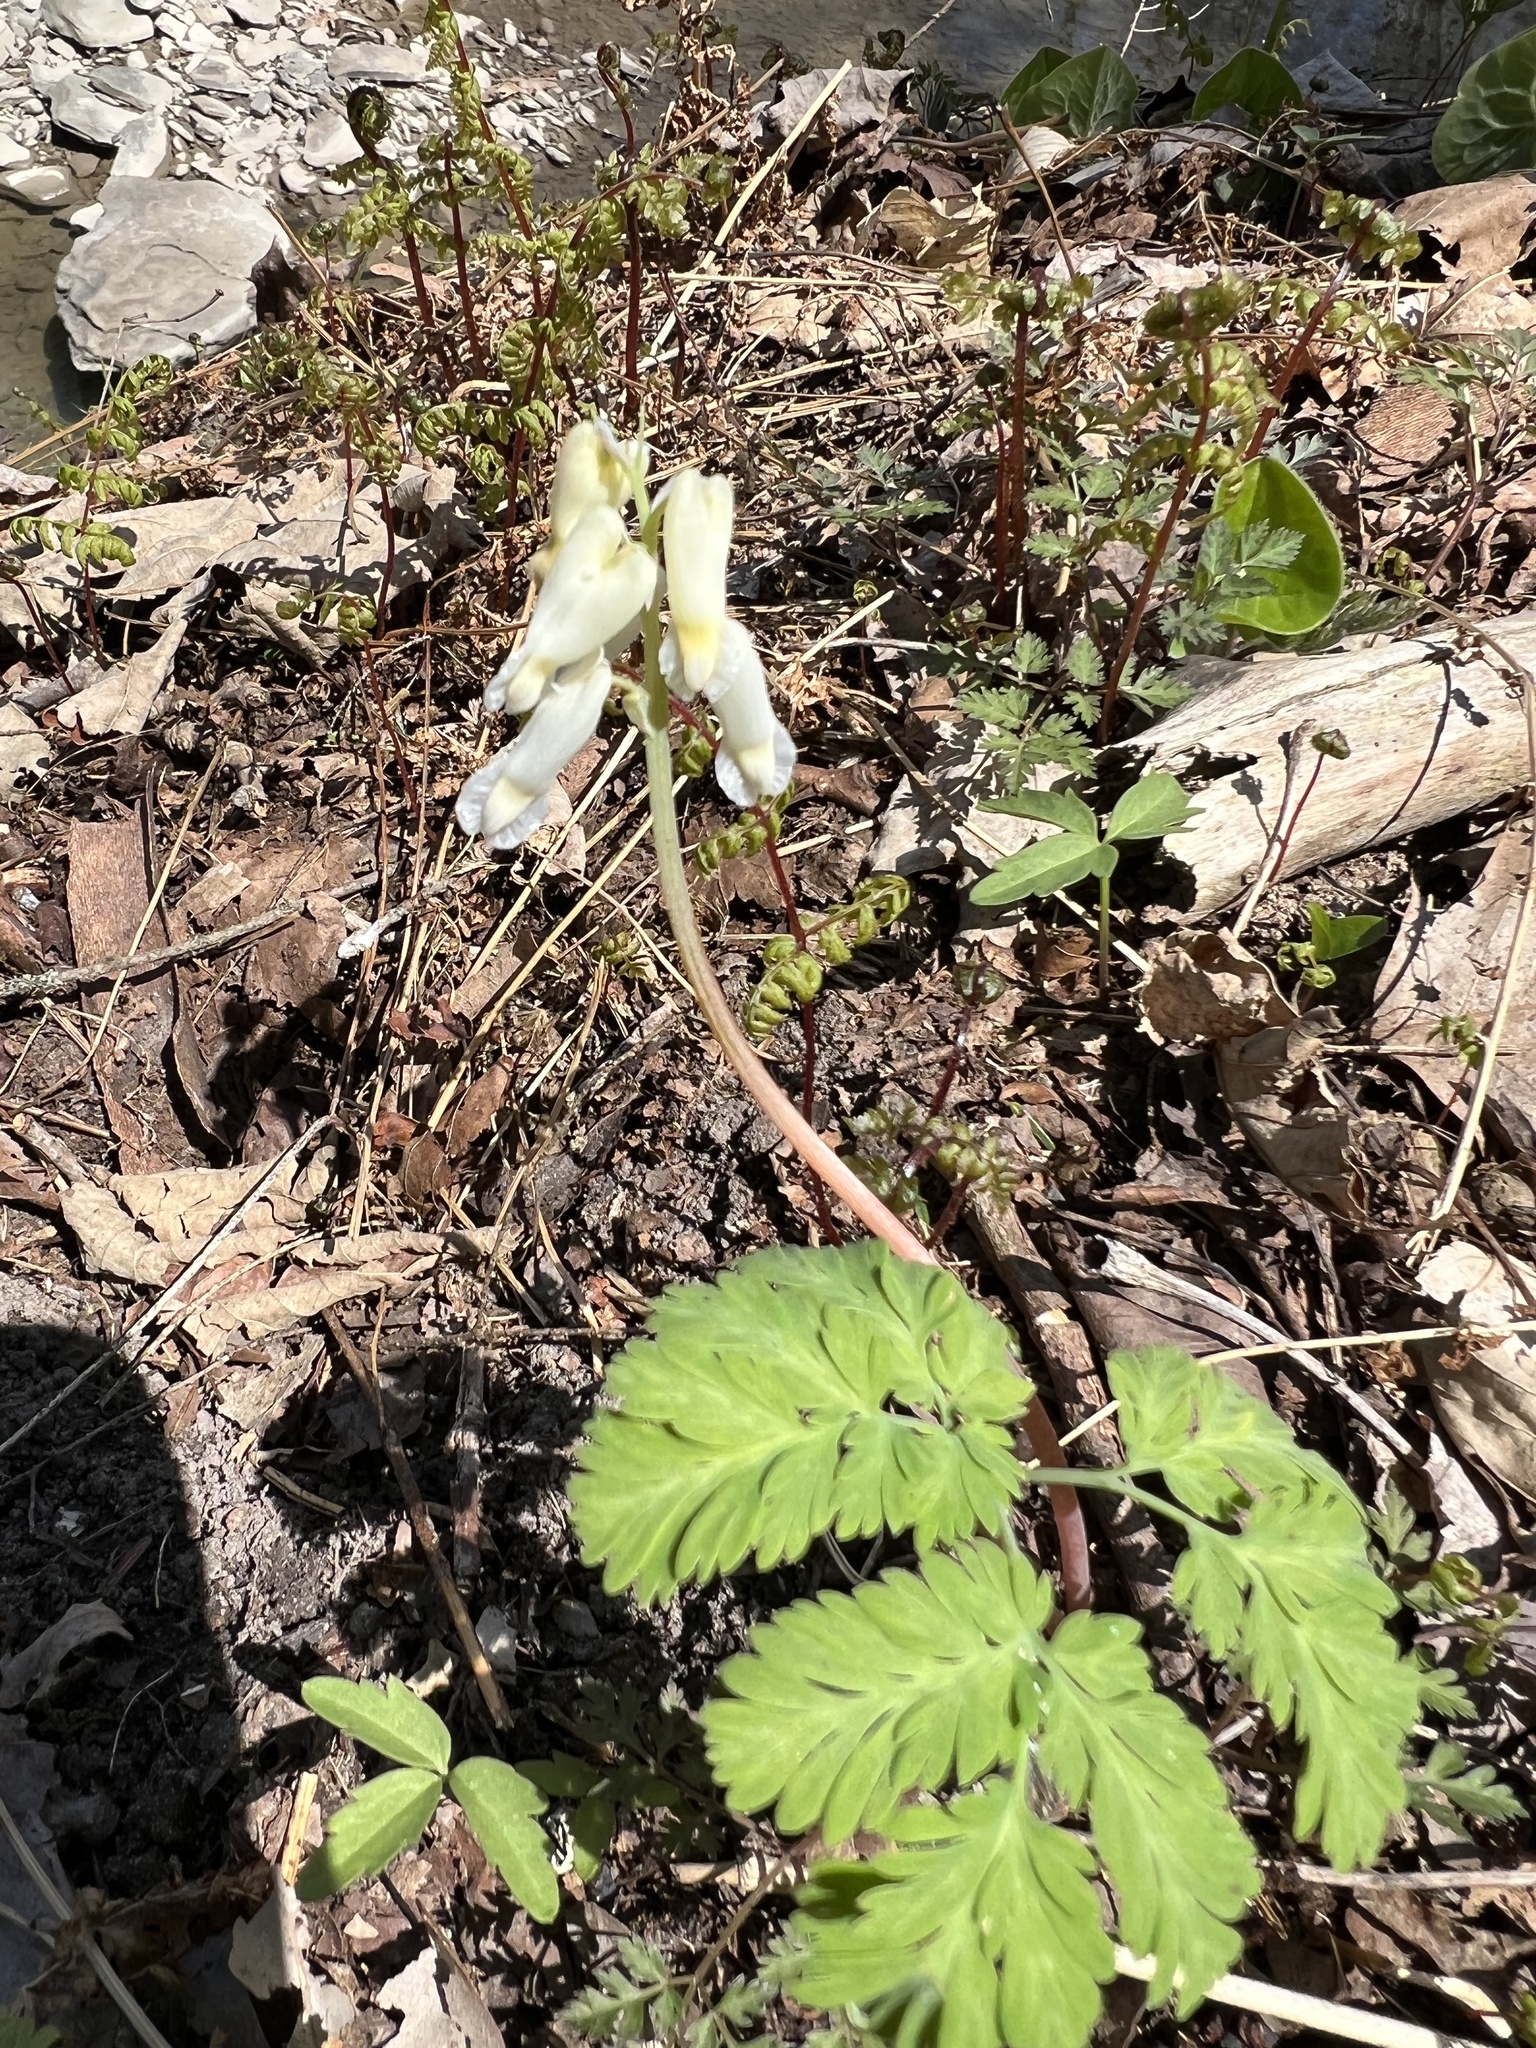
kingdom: Plantae
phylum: Tracheophyta
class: Magnoliopsida
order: Ranunculales
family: Papaveraceae
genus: Dicentra
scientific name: Dicentra canadensis
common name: Squirrel-corn
